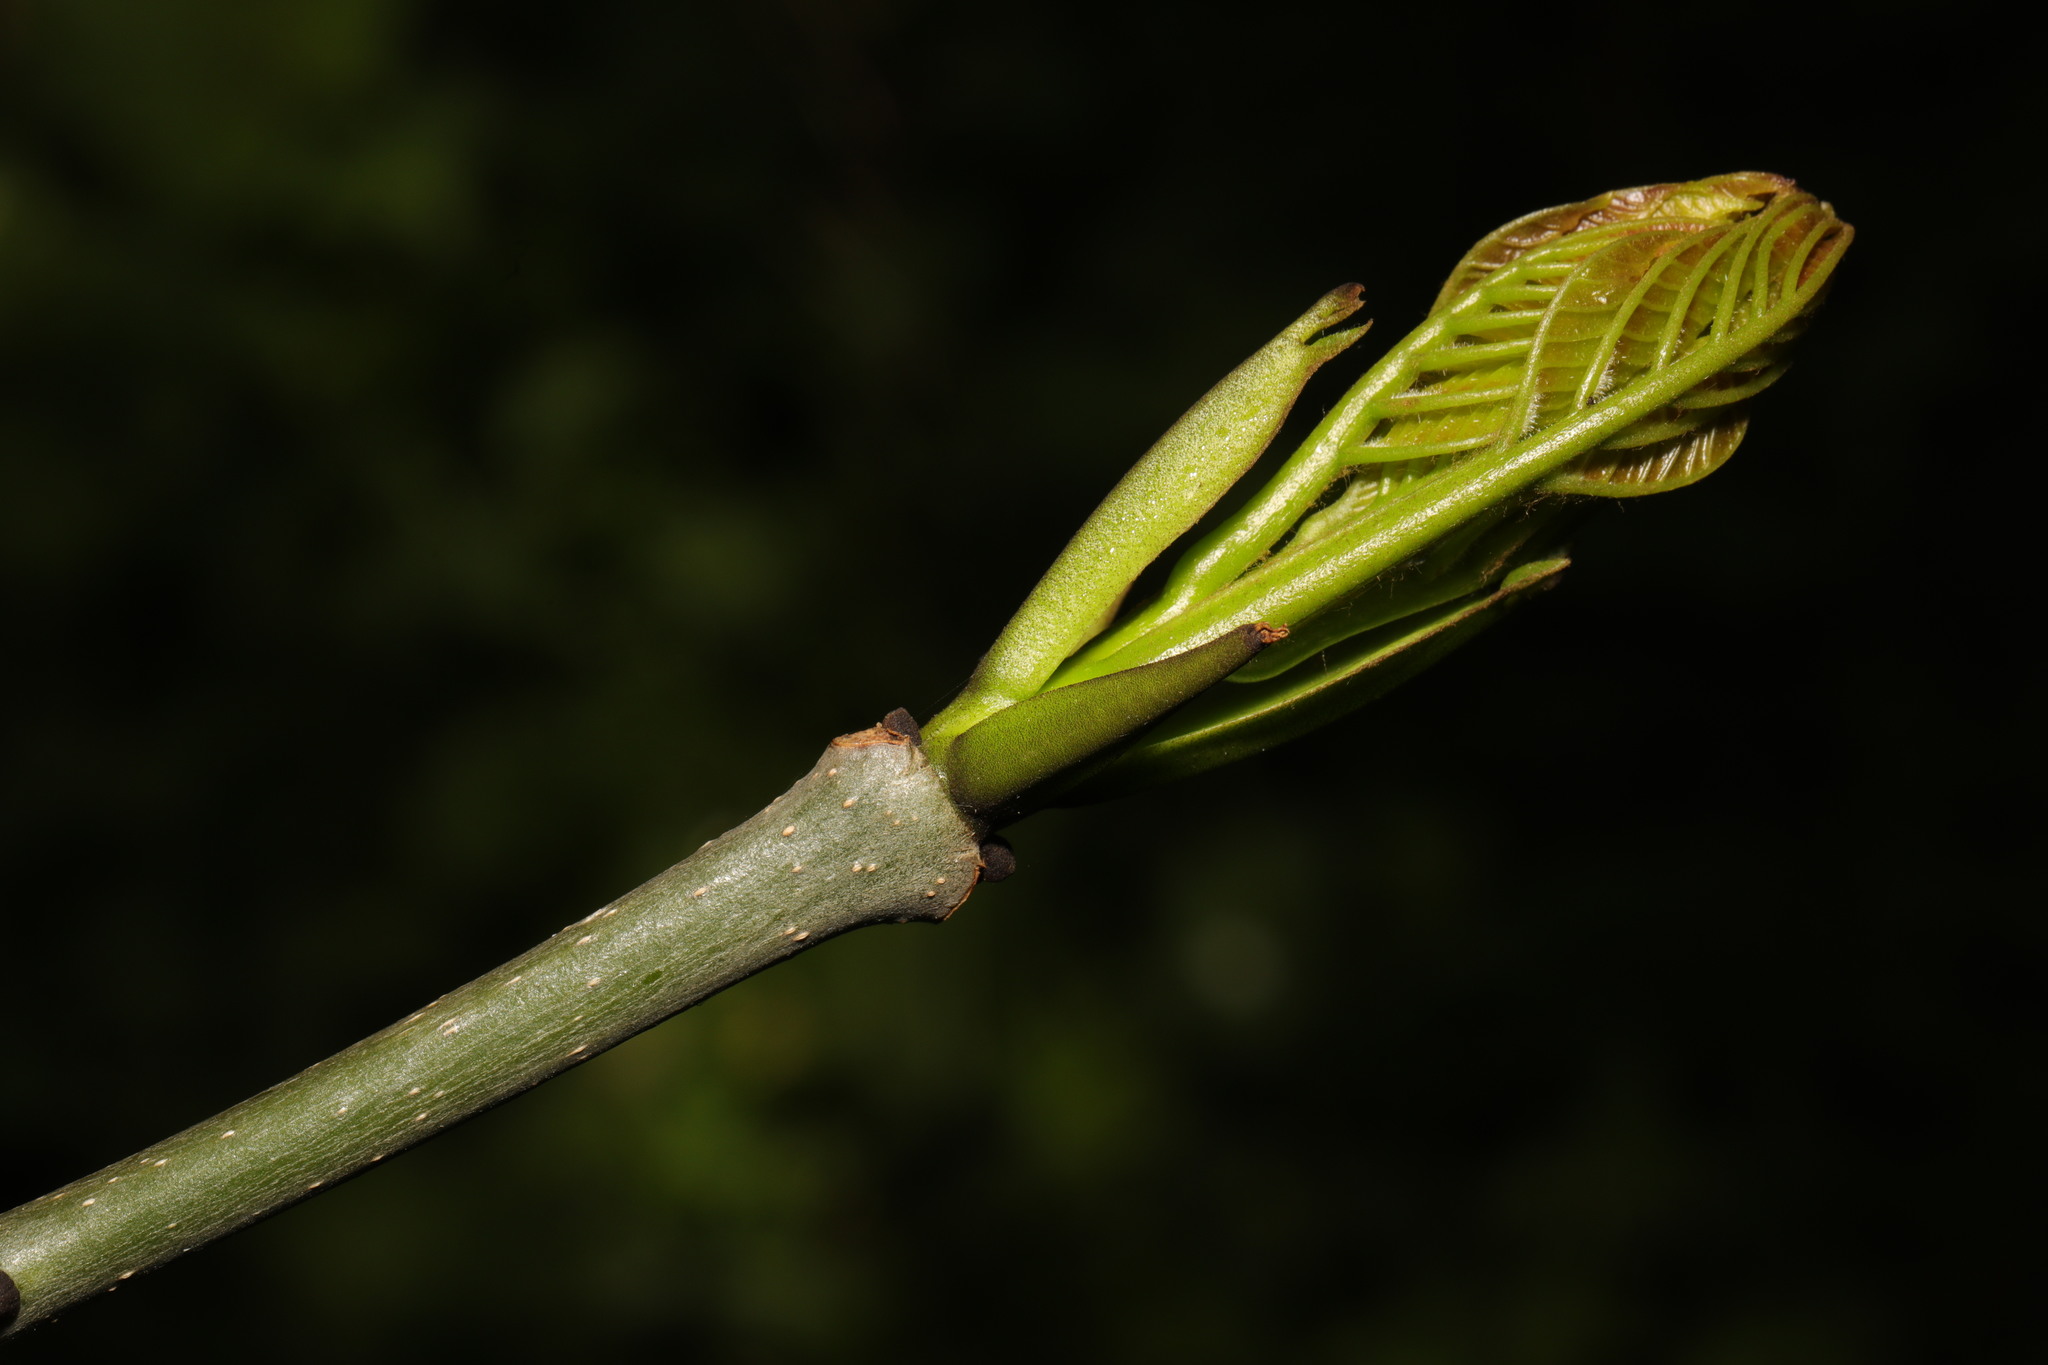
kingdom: Plantae
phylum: Tracheophyta
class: Magnoliopsida
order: Lamiales
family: Oleaceae
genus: Fraxinus
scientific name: Fraxinus excelsior
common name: European ash
